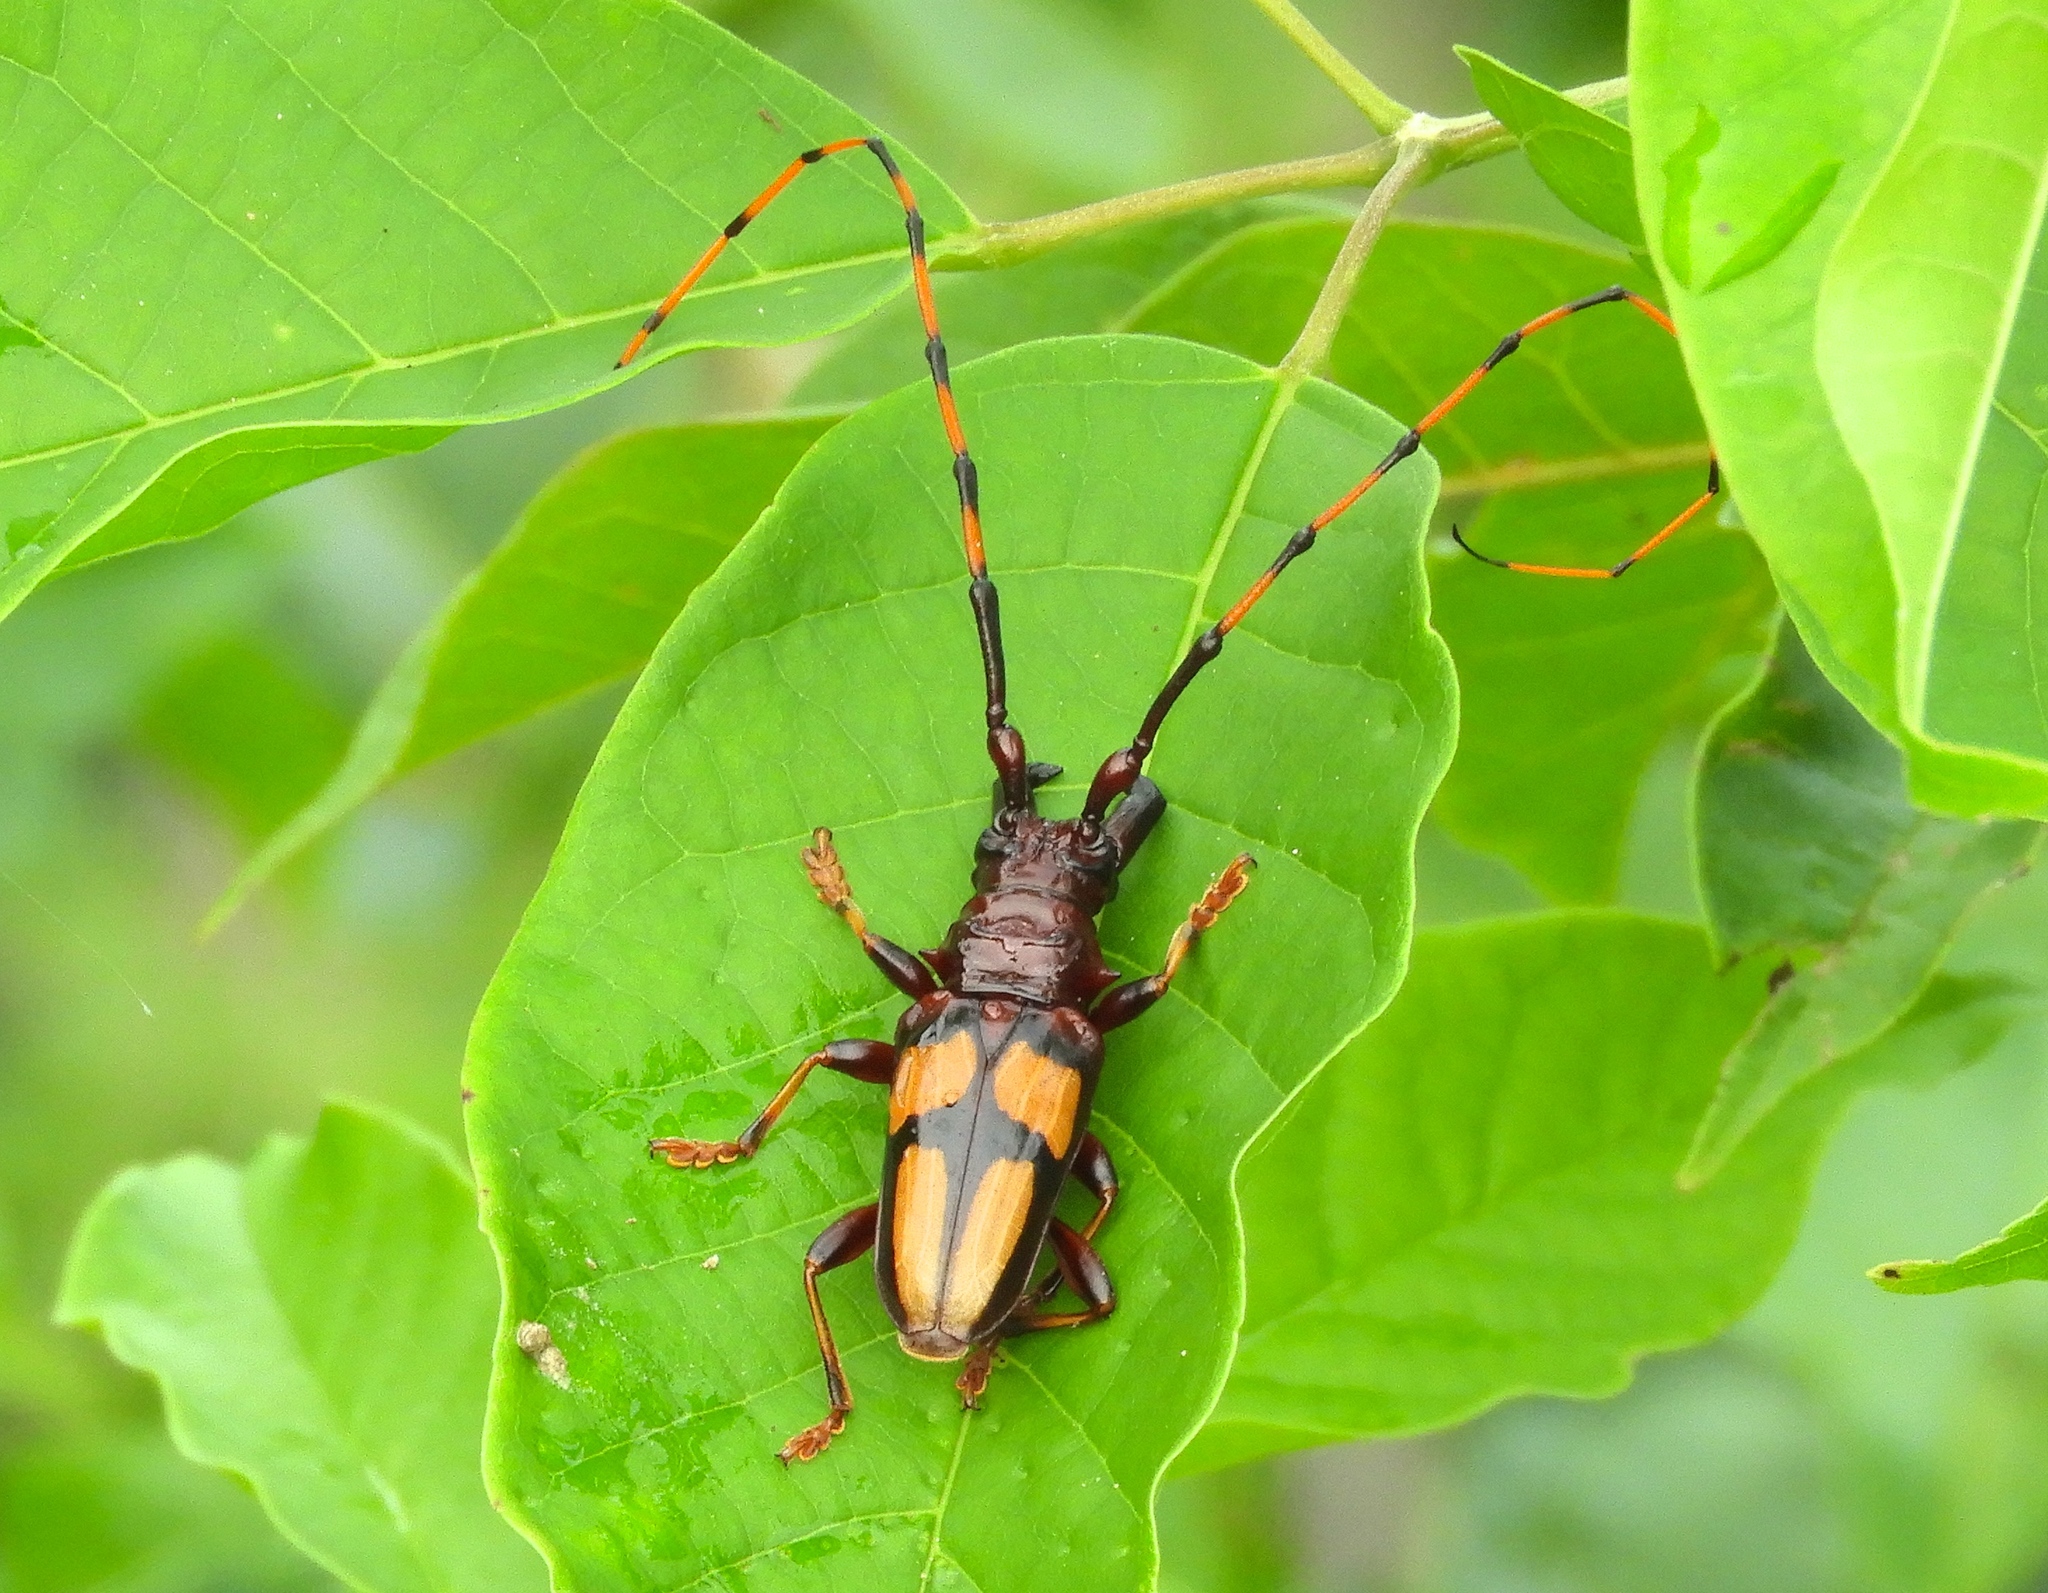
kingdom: Animalia
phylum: Arthropoda
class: Insecta
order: Coleoptera
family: Cerambycidae
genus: Trachyderes
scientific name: Trachyderes mandibularis
